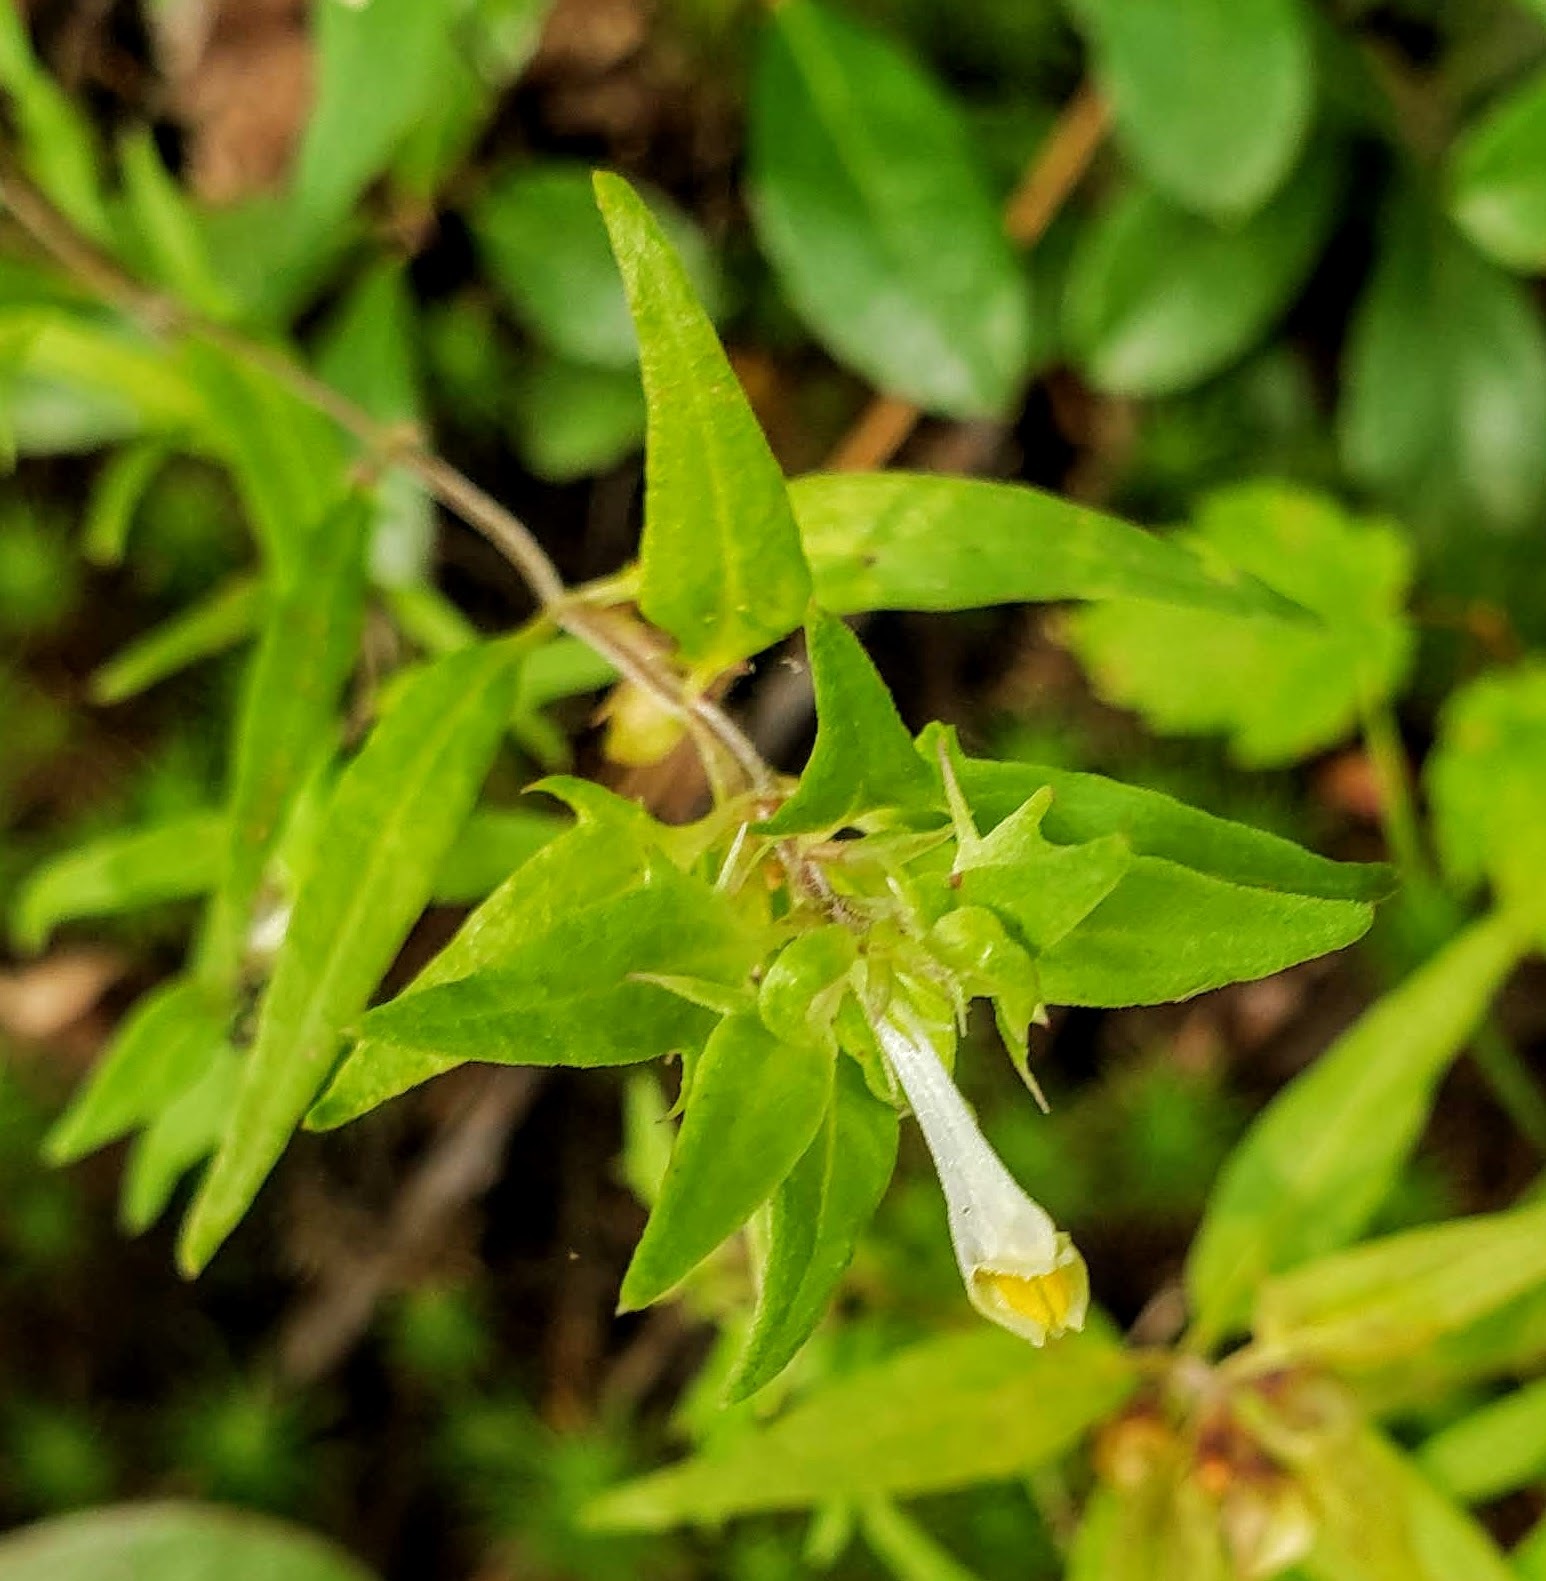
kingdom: Plantae
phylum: Tracheophyta
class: Magnoliopsida
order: Lamiales
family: Orobanchaceae
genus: Melampyrum
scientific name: Melampyrum lineare
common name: American cow-wheat
